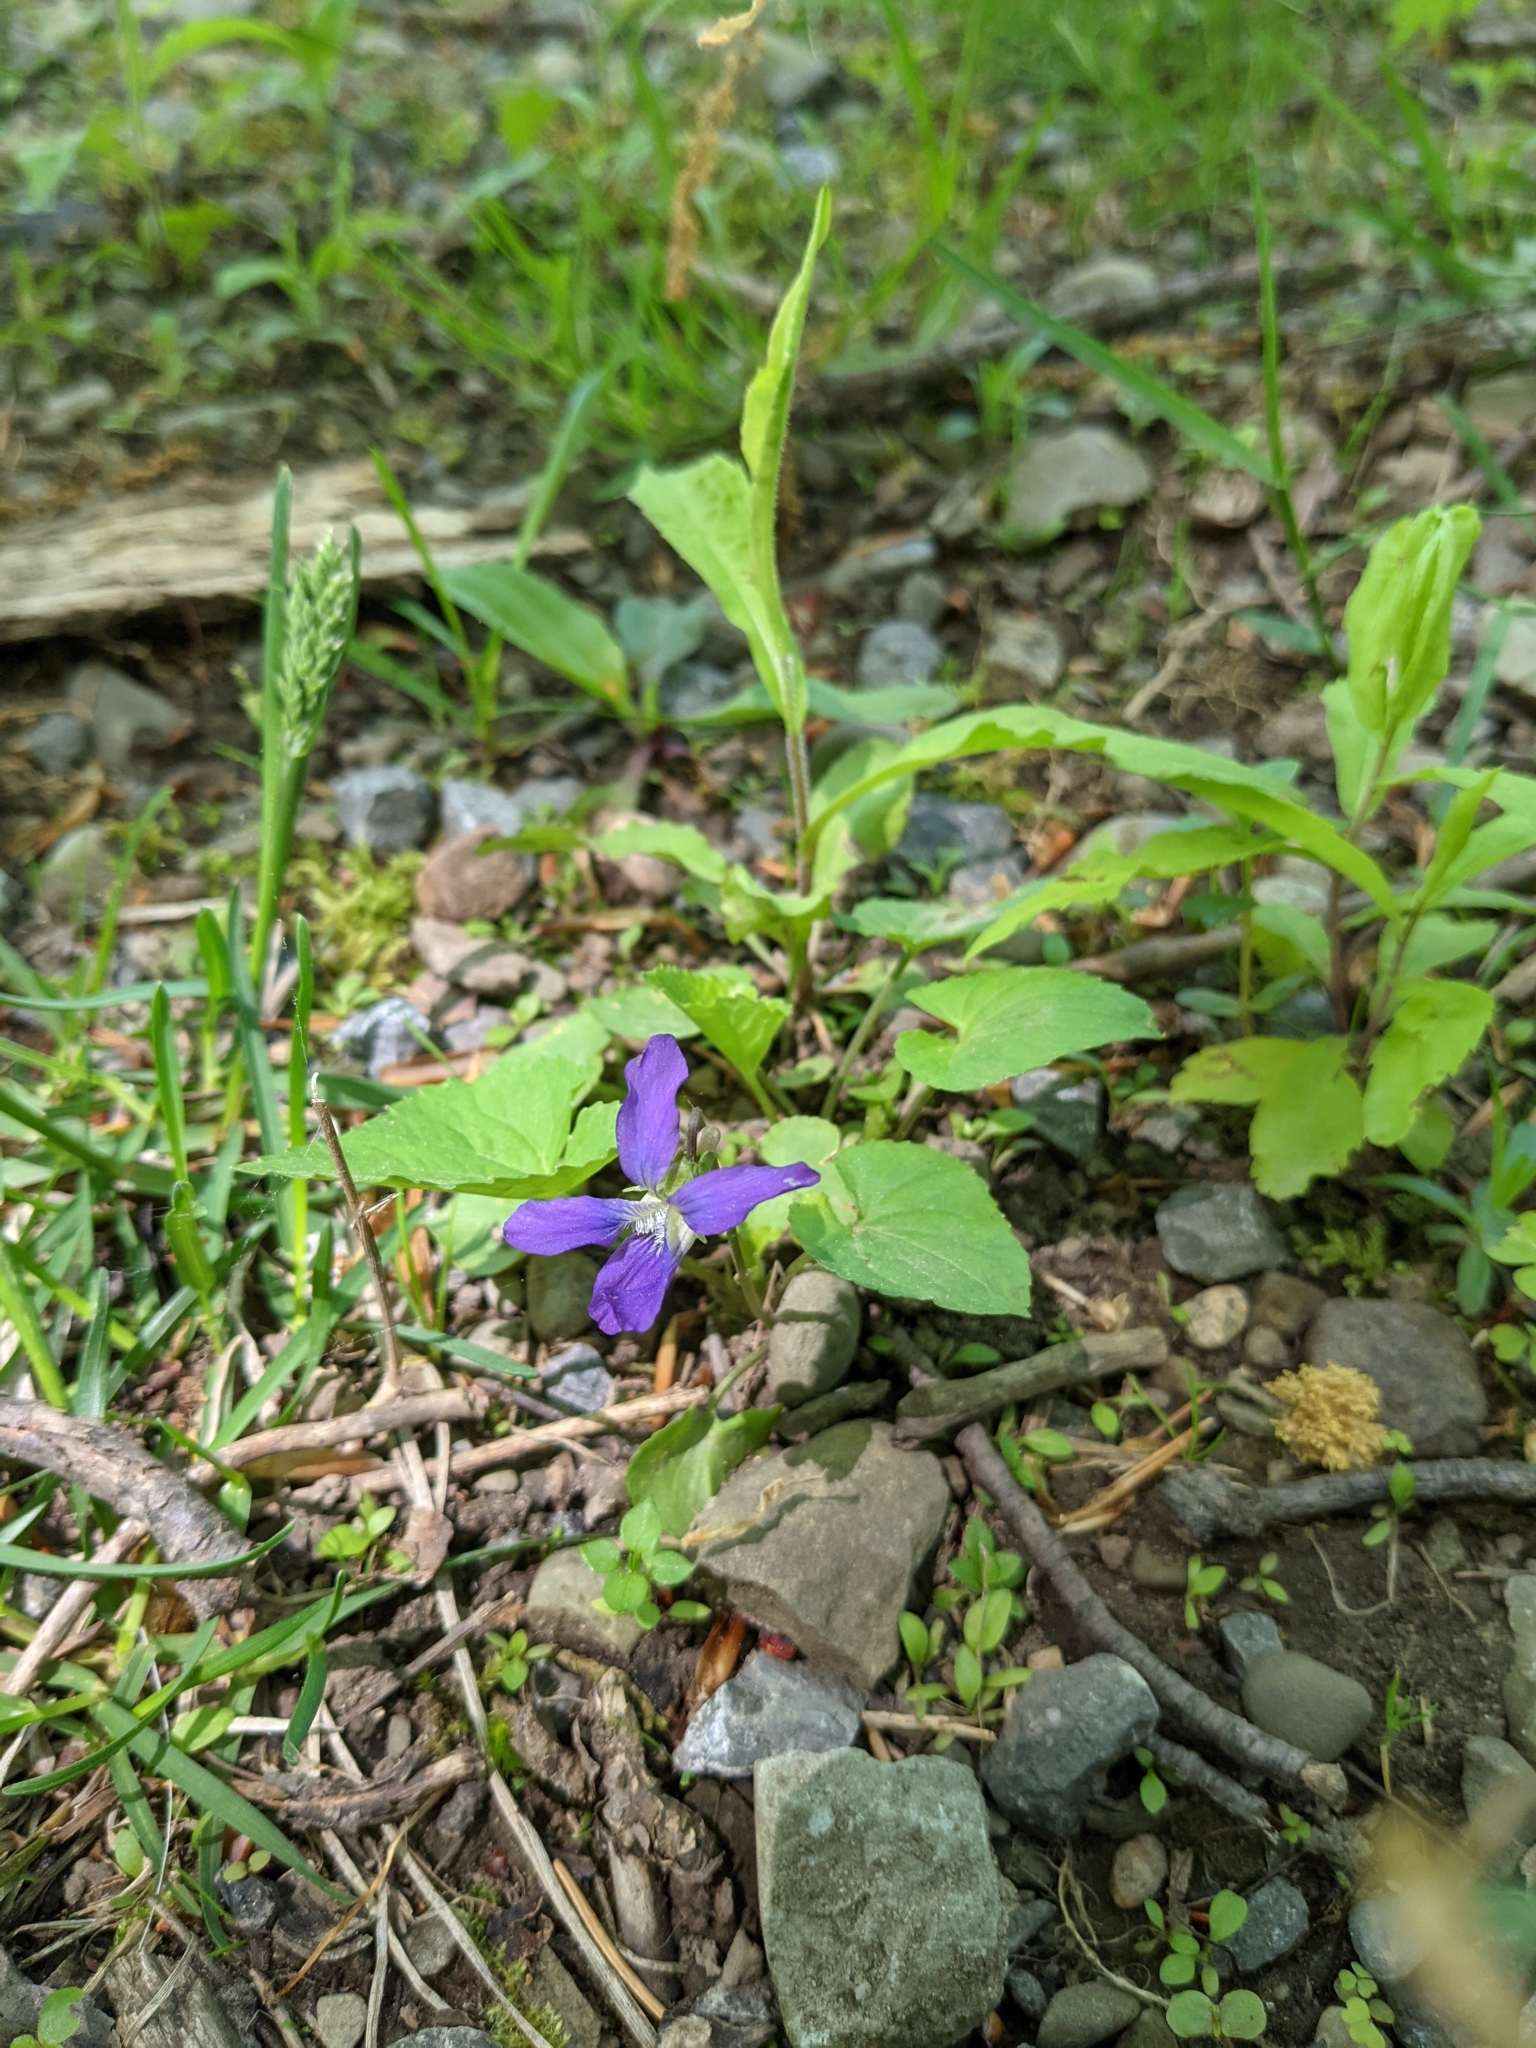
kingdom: Plantae
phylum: Tracheophyta
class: Magnoliopsida
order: Malpighiales
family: Violaceae
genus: Viola
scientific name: Viola sororia
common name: Dooryard violet
